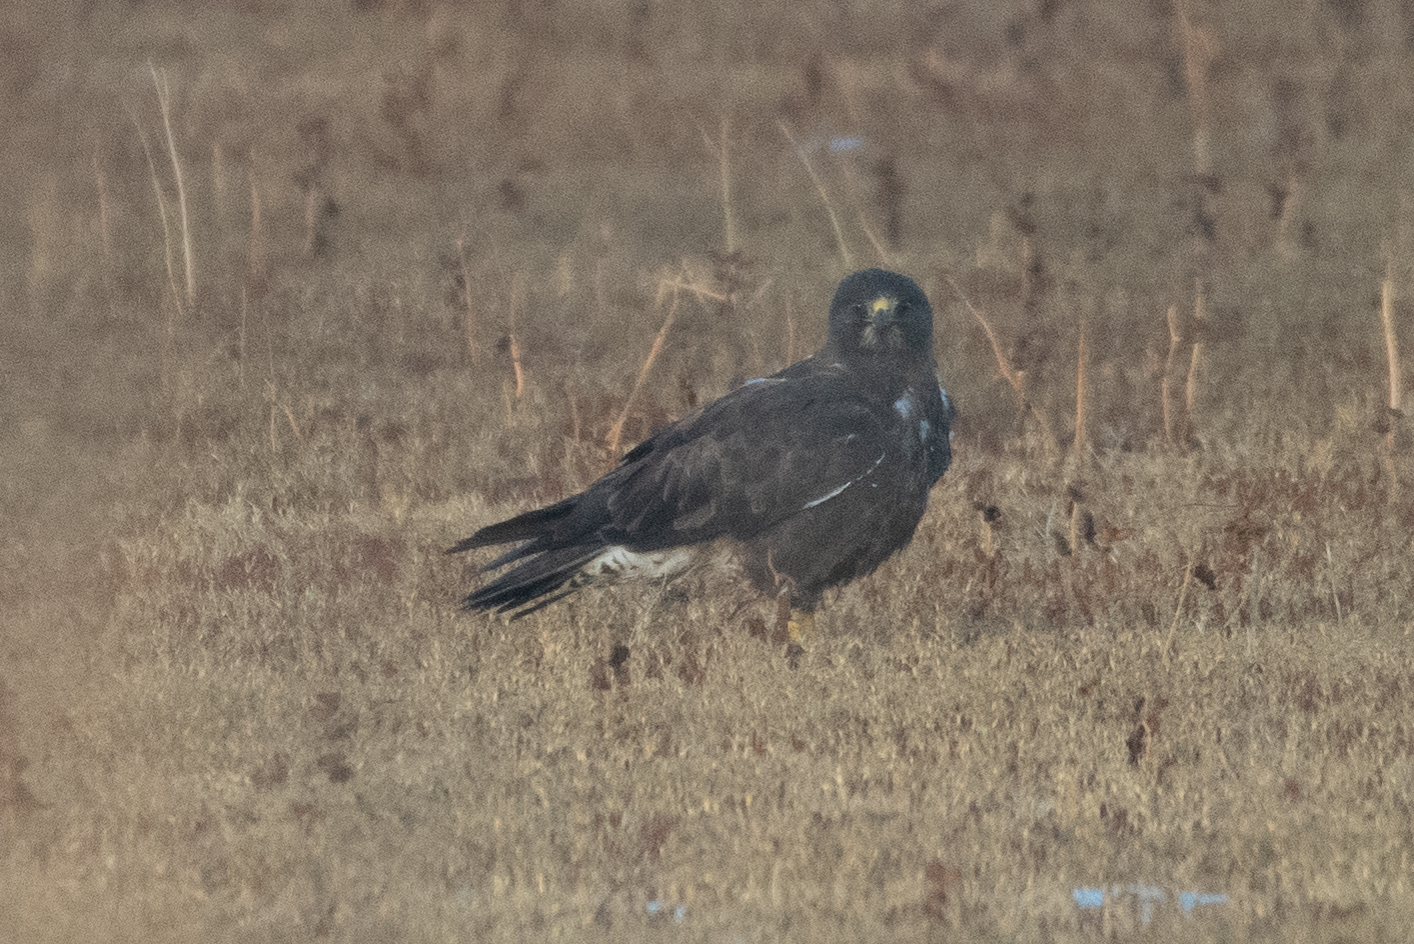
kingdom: Animalia
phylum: Chordata
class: Aves
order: Accipitriformes
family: Accipitridae
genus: Buteo
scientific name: Buteo swainsoni
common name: Swainson's hawk
